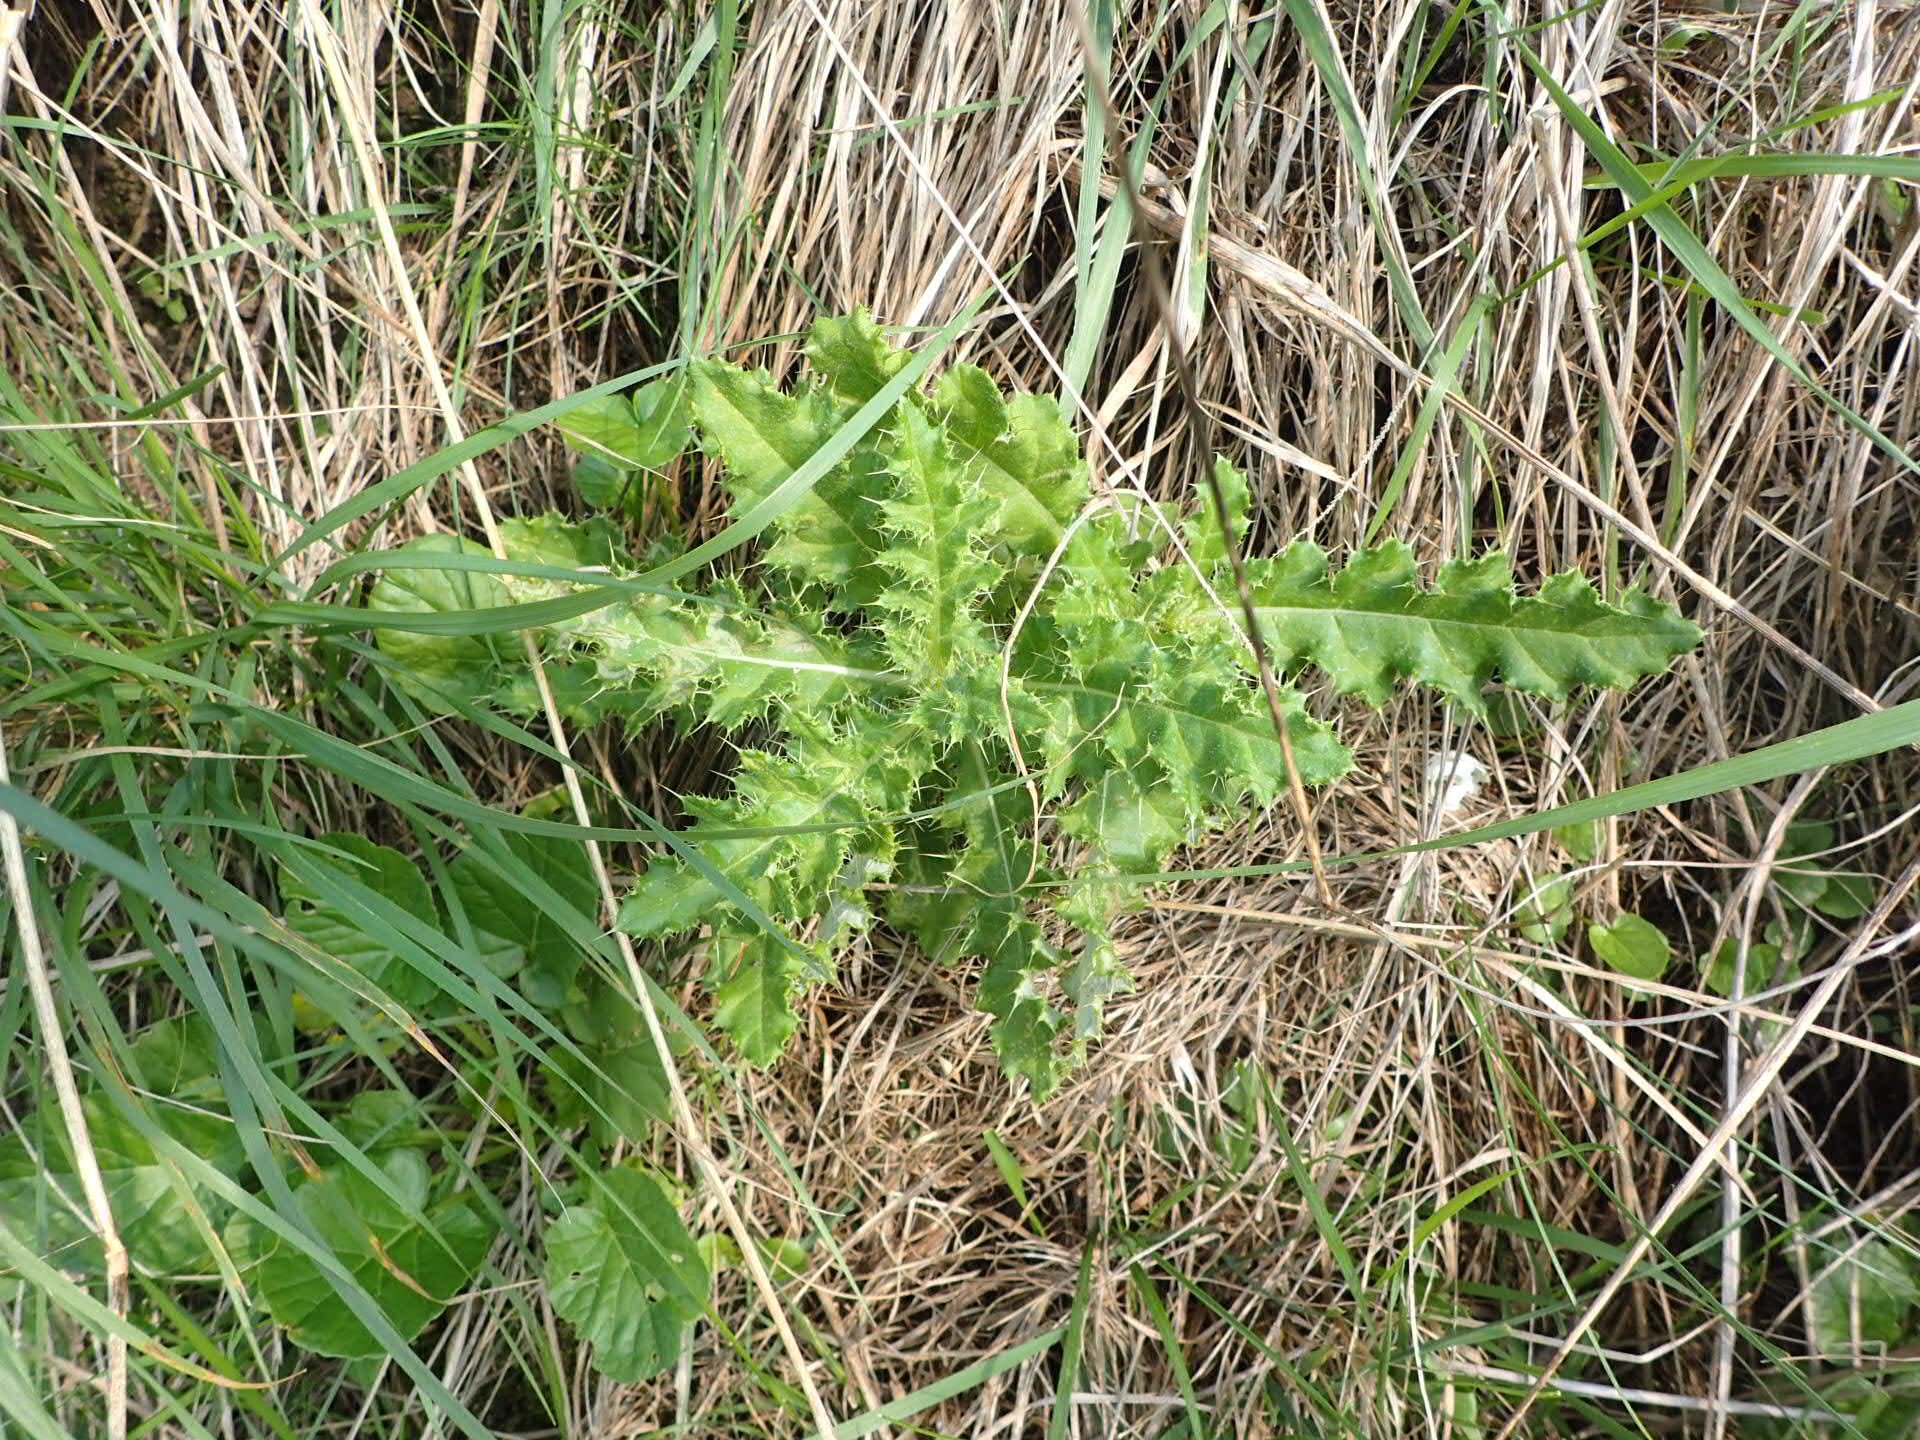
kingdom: Plantae
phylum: Tracheophyta
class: Magnoliopsida
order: Asterales
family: Asteraceae
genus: Cirsium
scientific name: Cirsium arvense
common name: Creeping thistle
